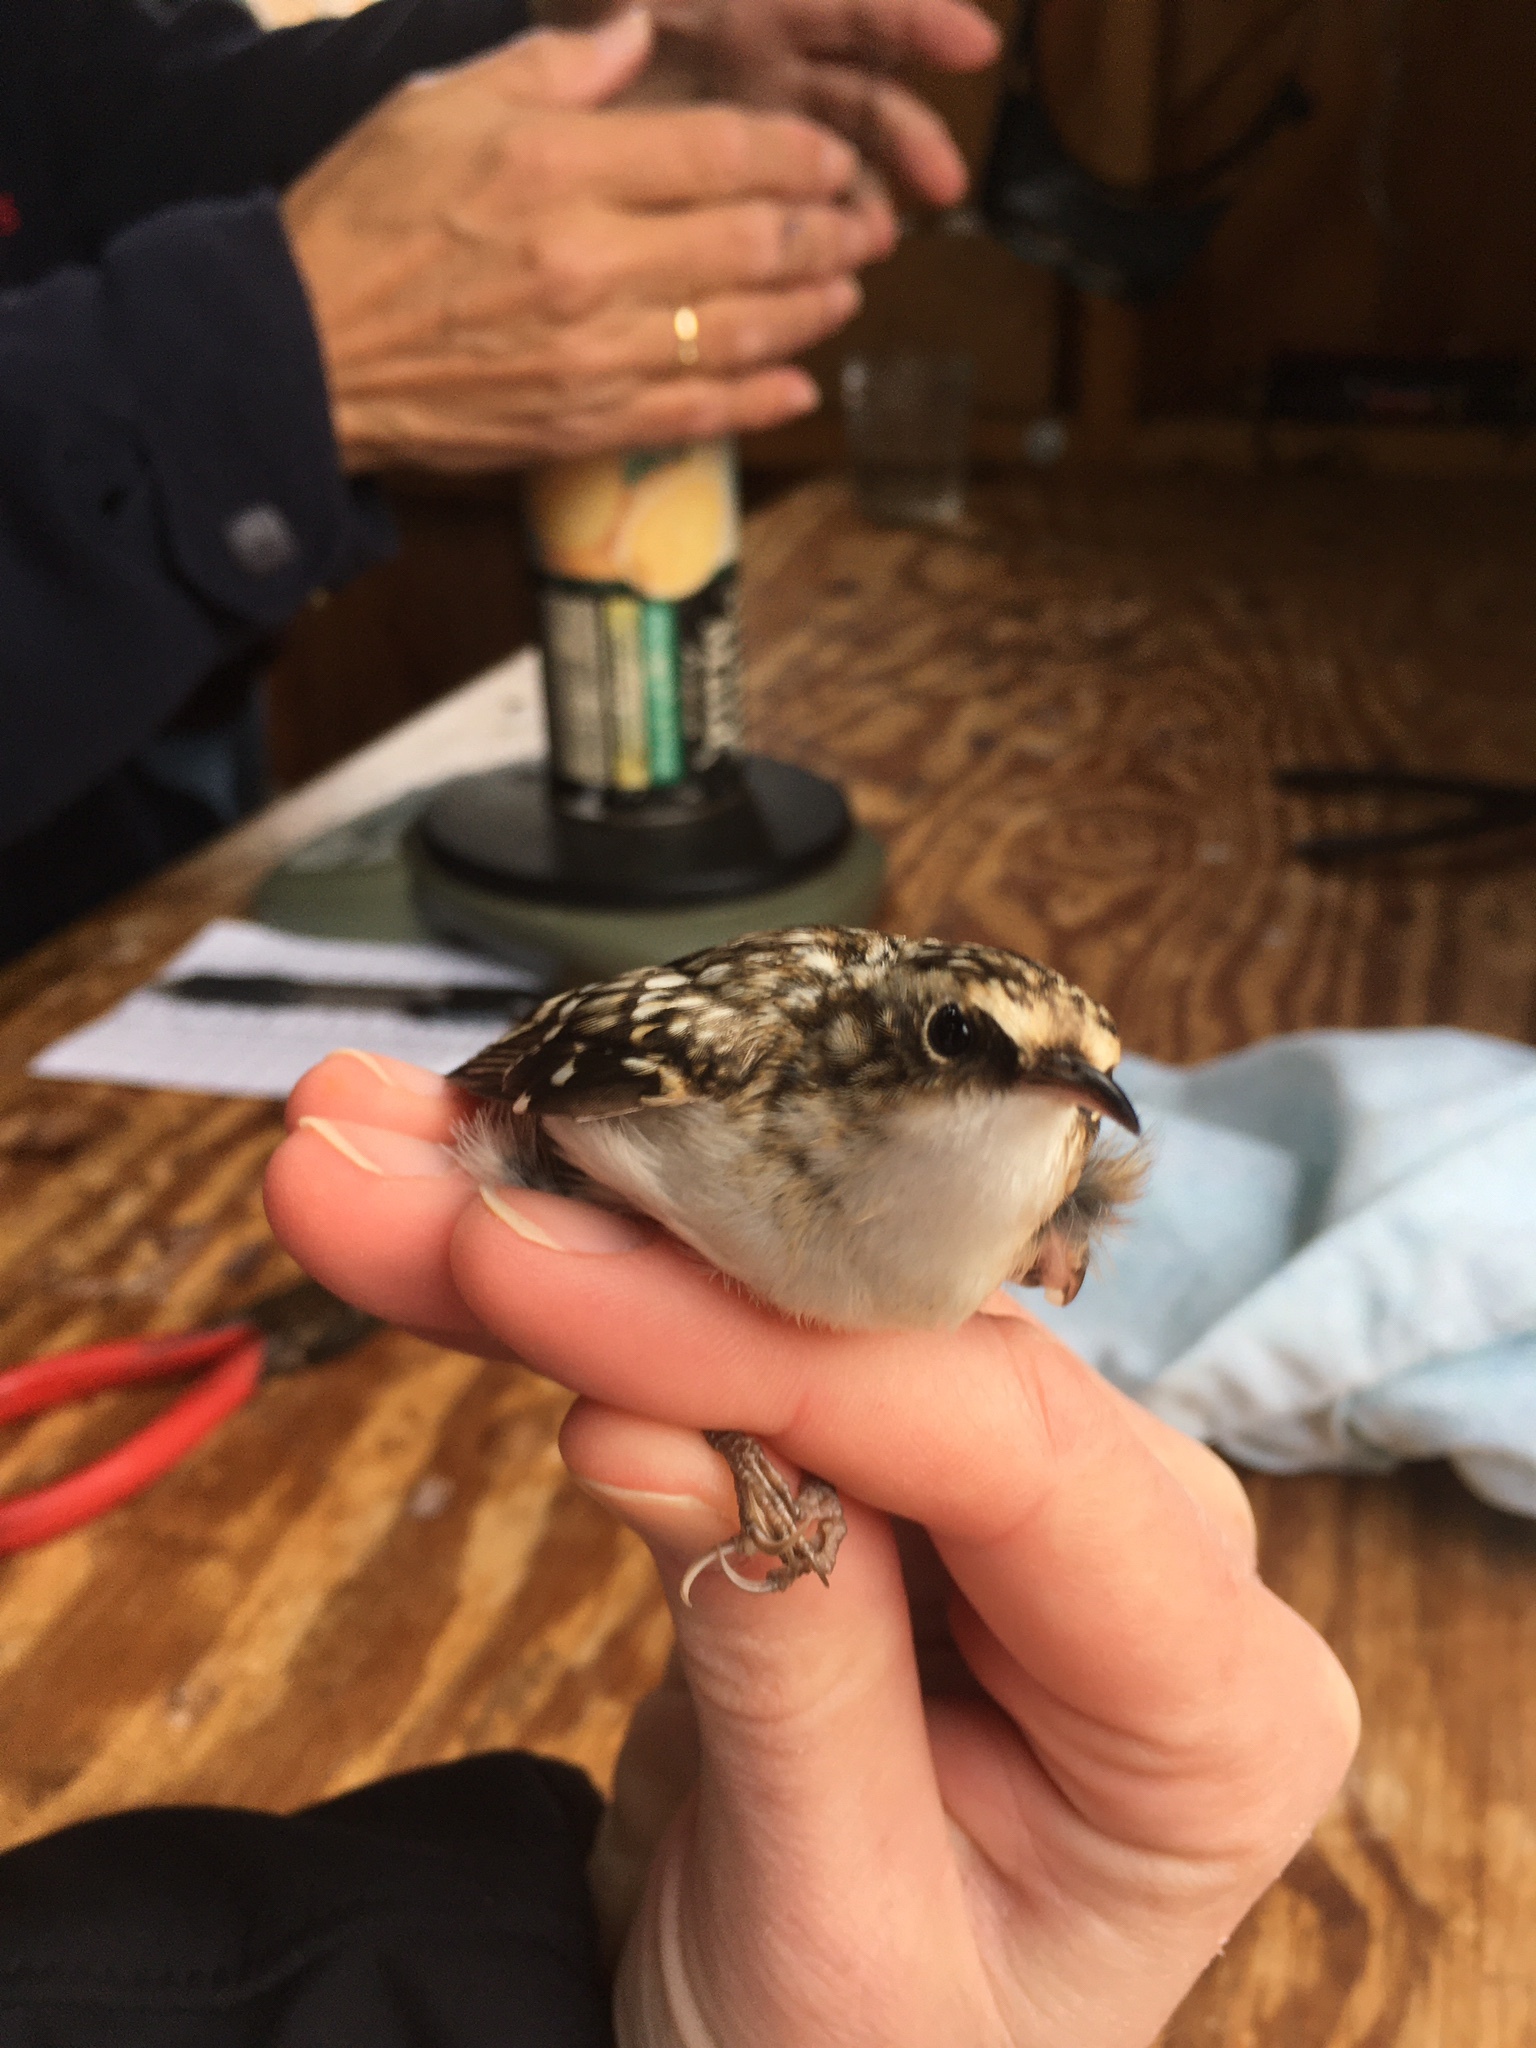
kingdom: Animalia
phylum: Chordata
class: Aves
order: Passeriformes
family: Certhiidae
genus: Certhia
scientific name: Certhia americana
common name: Brown creeper
